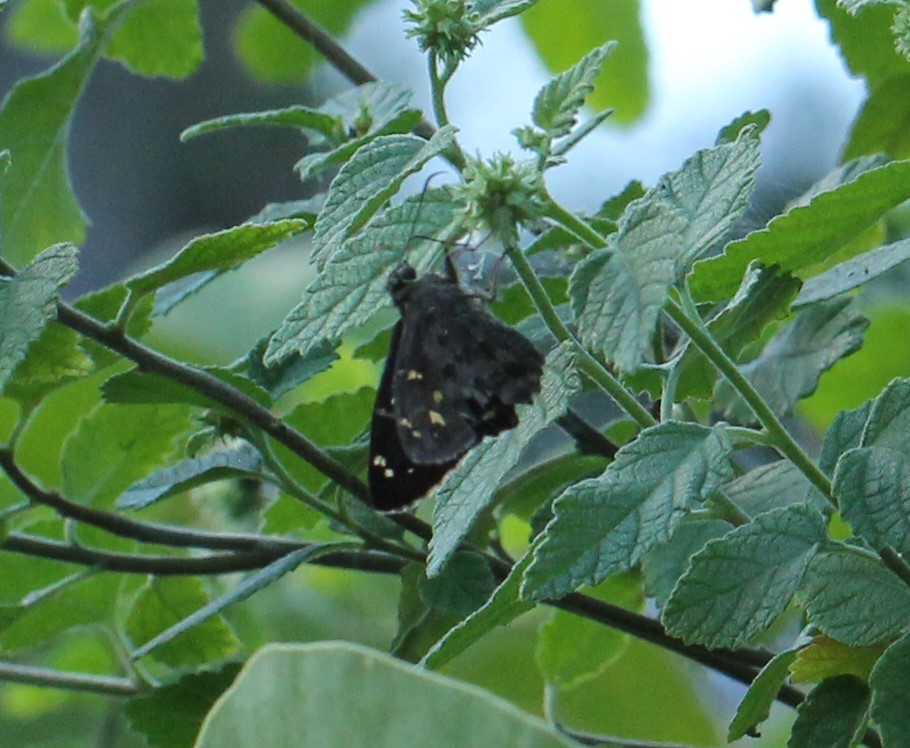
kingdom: Animalia
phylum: Arthropoda
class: Insecta
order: Lepidoptera
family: Hesperiidae
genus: Thorybes
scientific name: Thorybes
